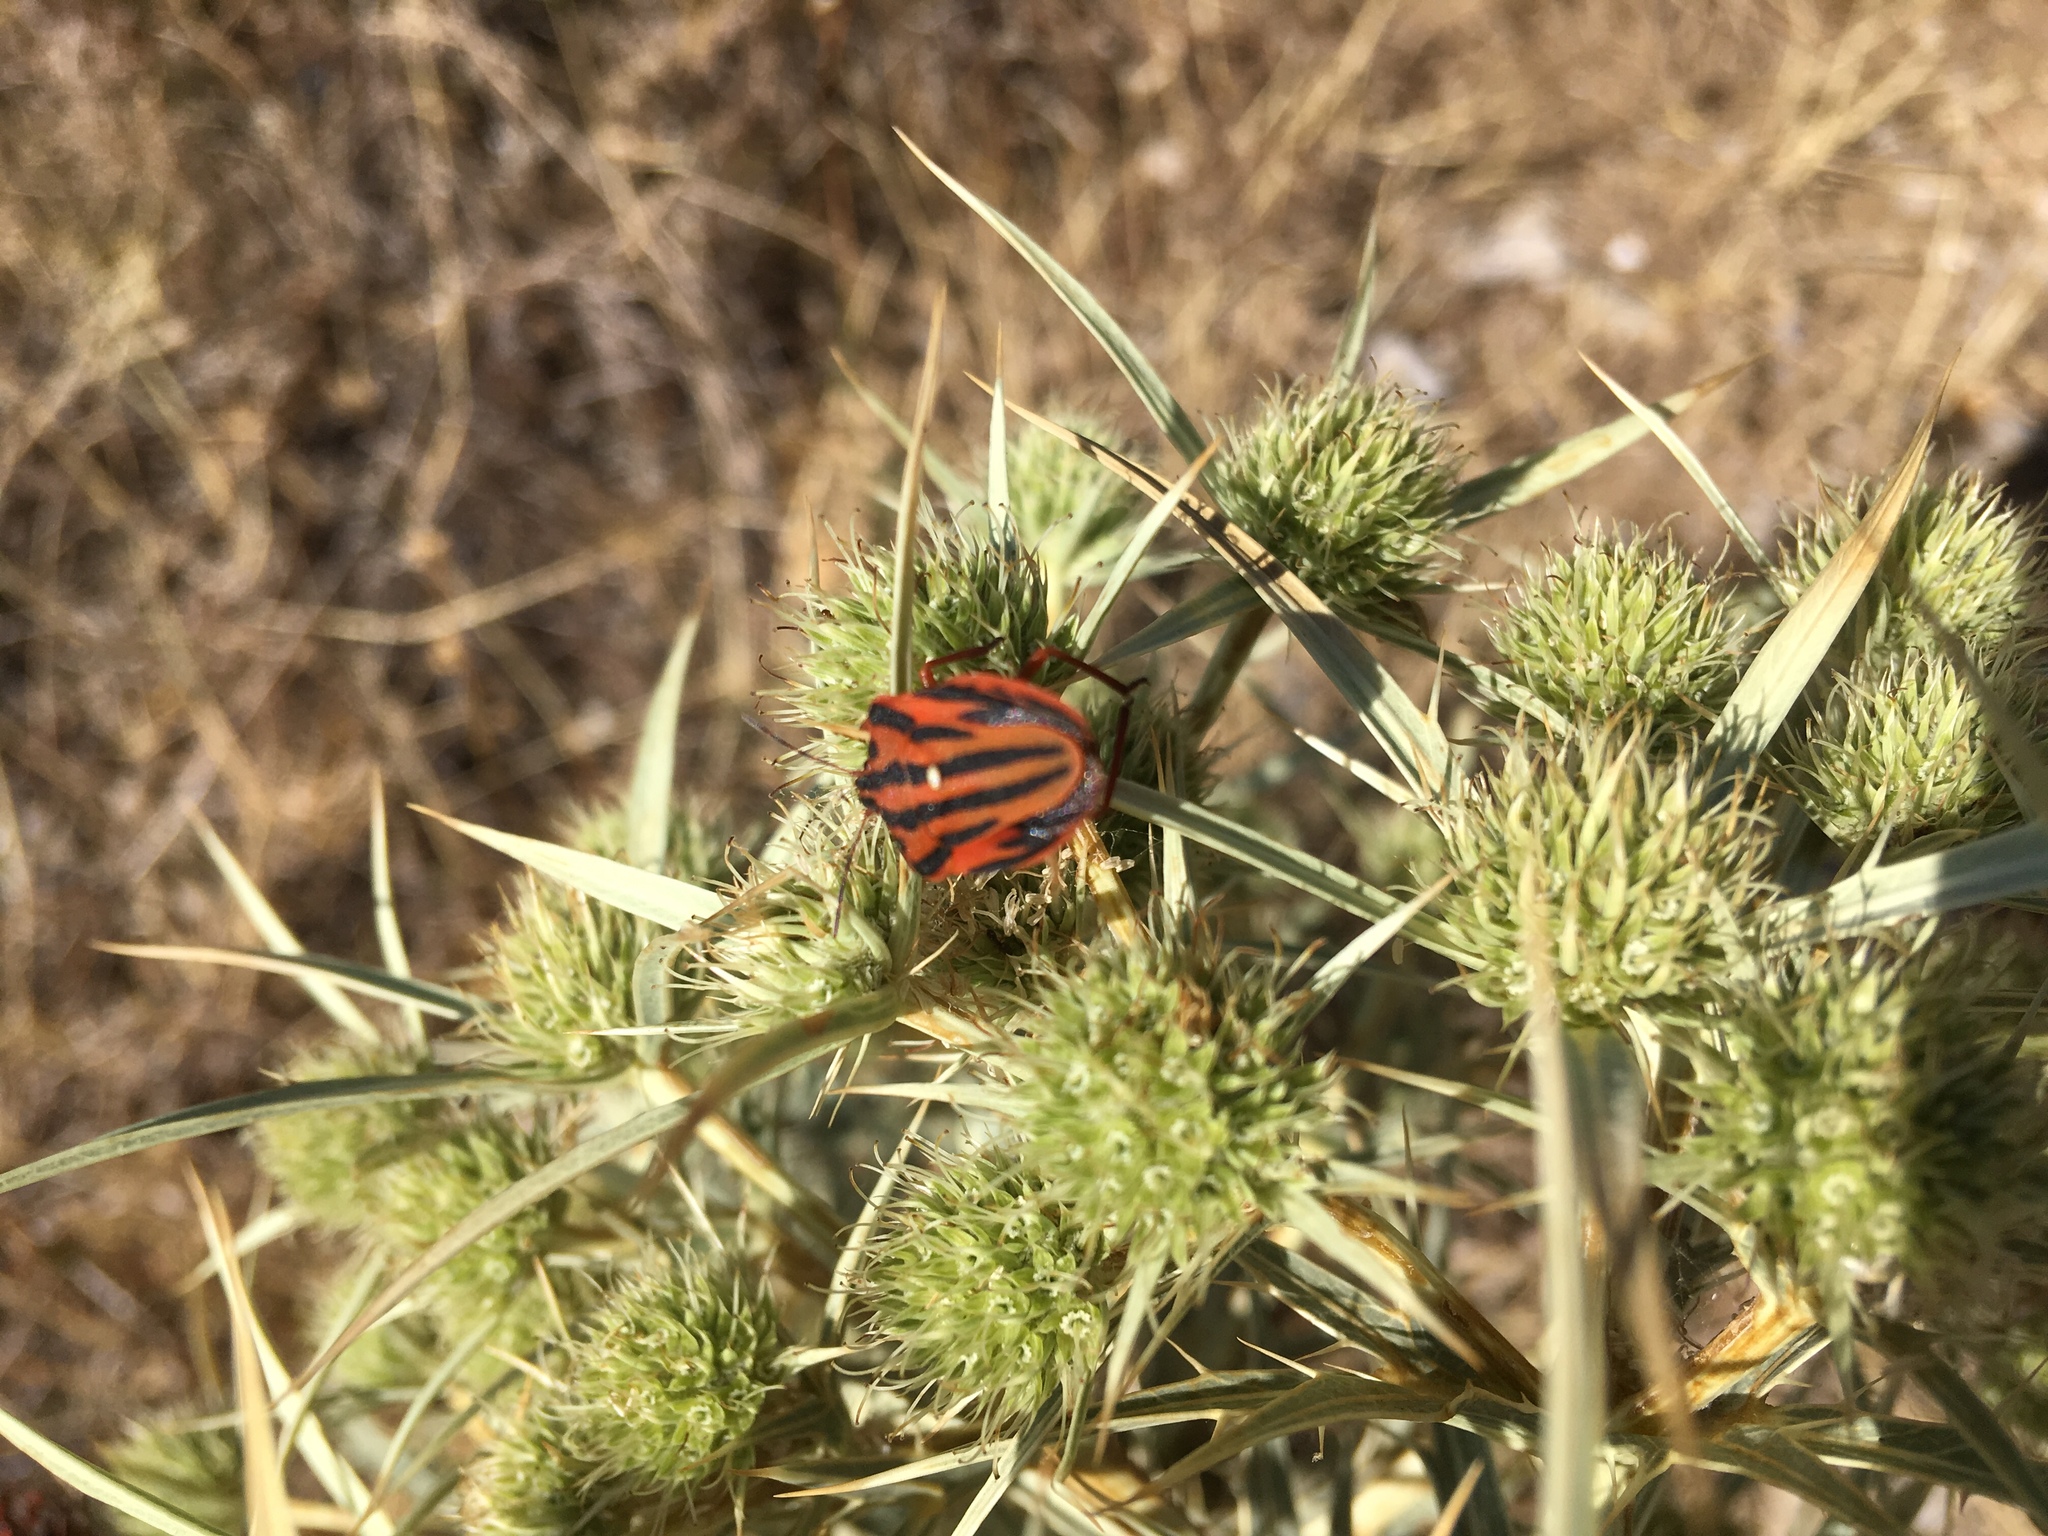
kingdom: Animalia
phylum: Arthropoda
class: Insecta
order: Hemiptera
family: Pentatomidae
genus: Graphosoma
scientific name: Graphosoma semipunctatum
